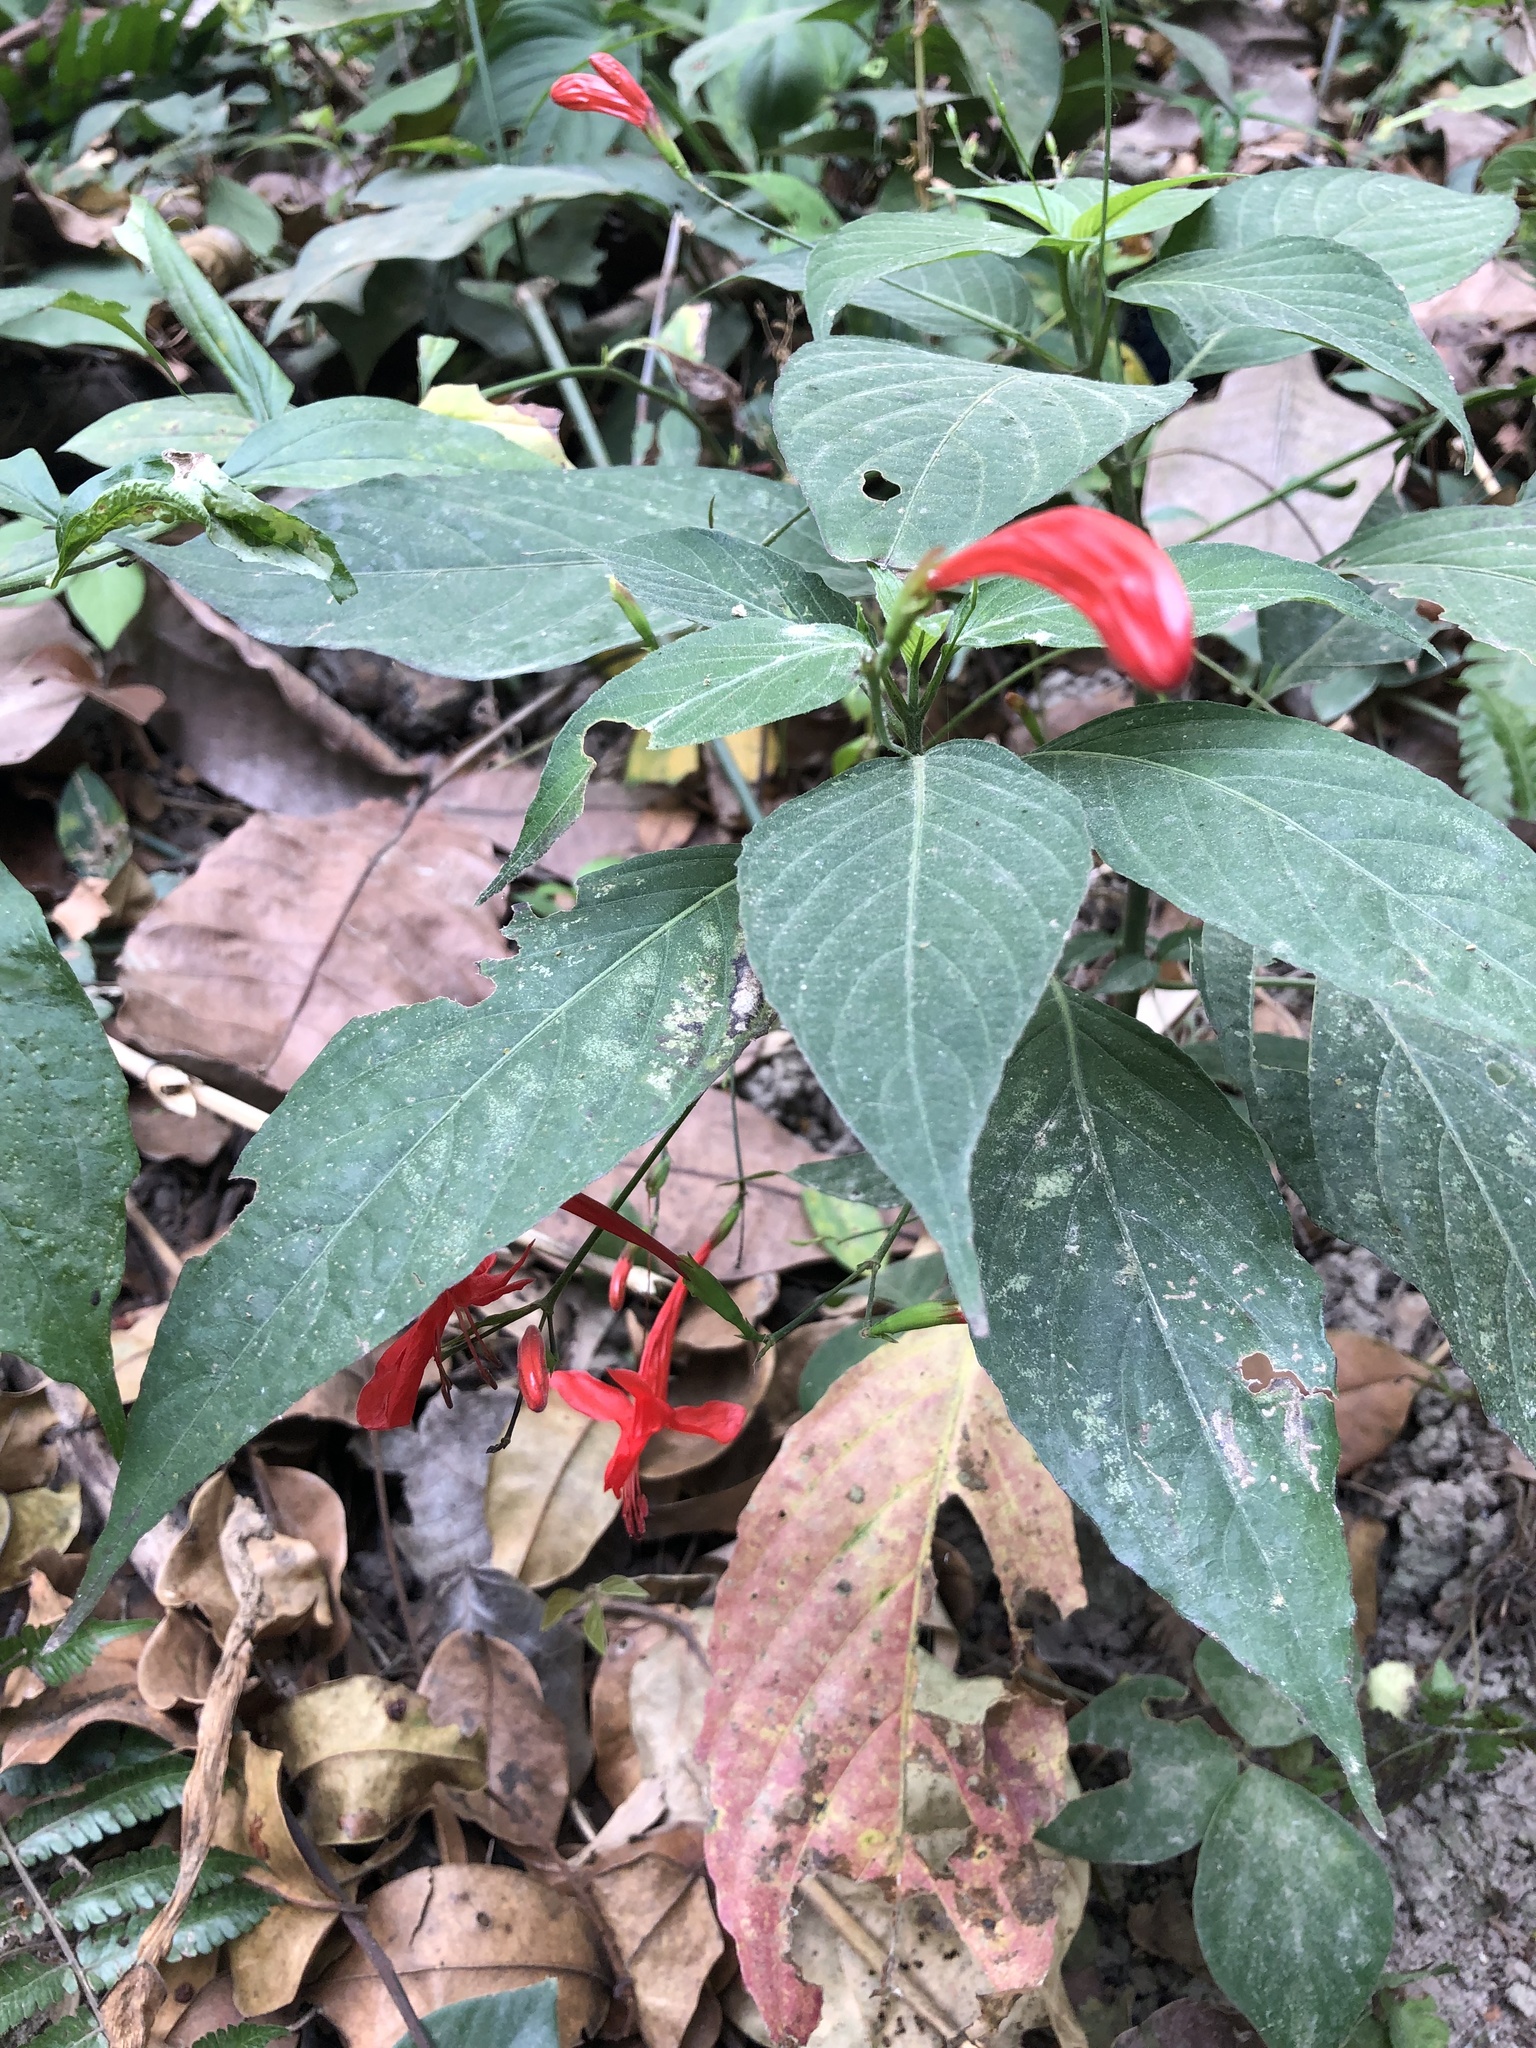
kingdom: Plantae
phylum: Tracheophyta
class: Magnoliopsida
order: Lamiales
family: Acanthaceae
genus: Ruellia
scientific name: Ruellia macrophylla
